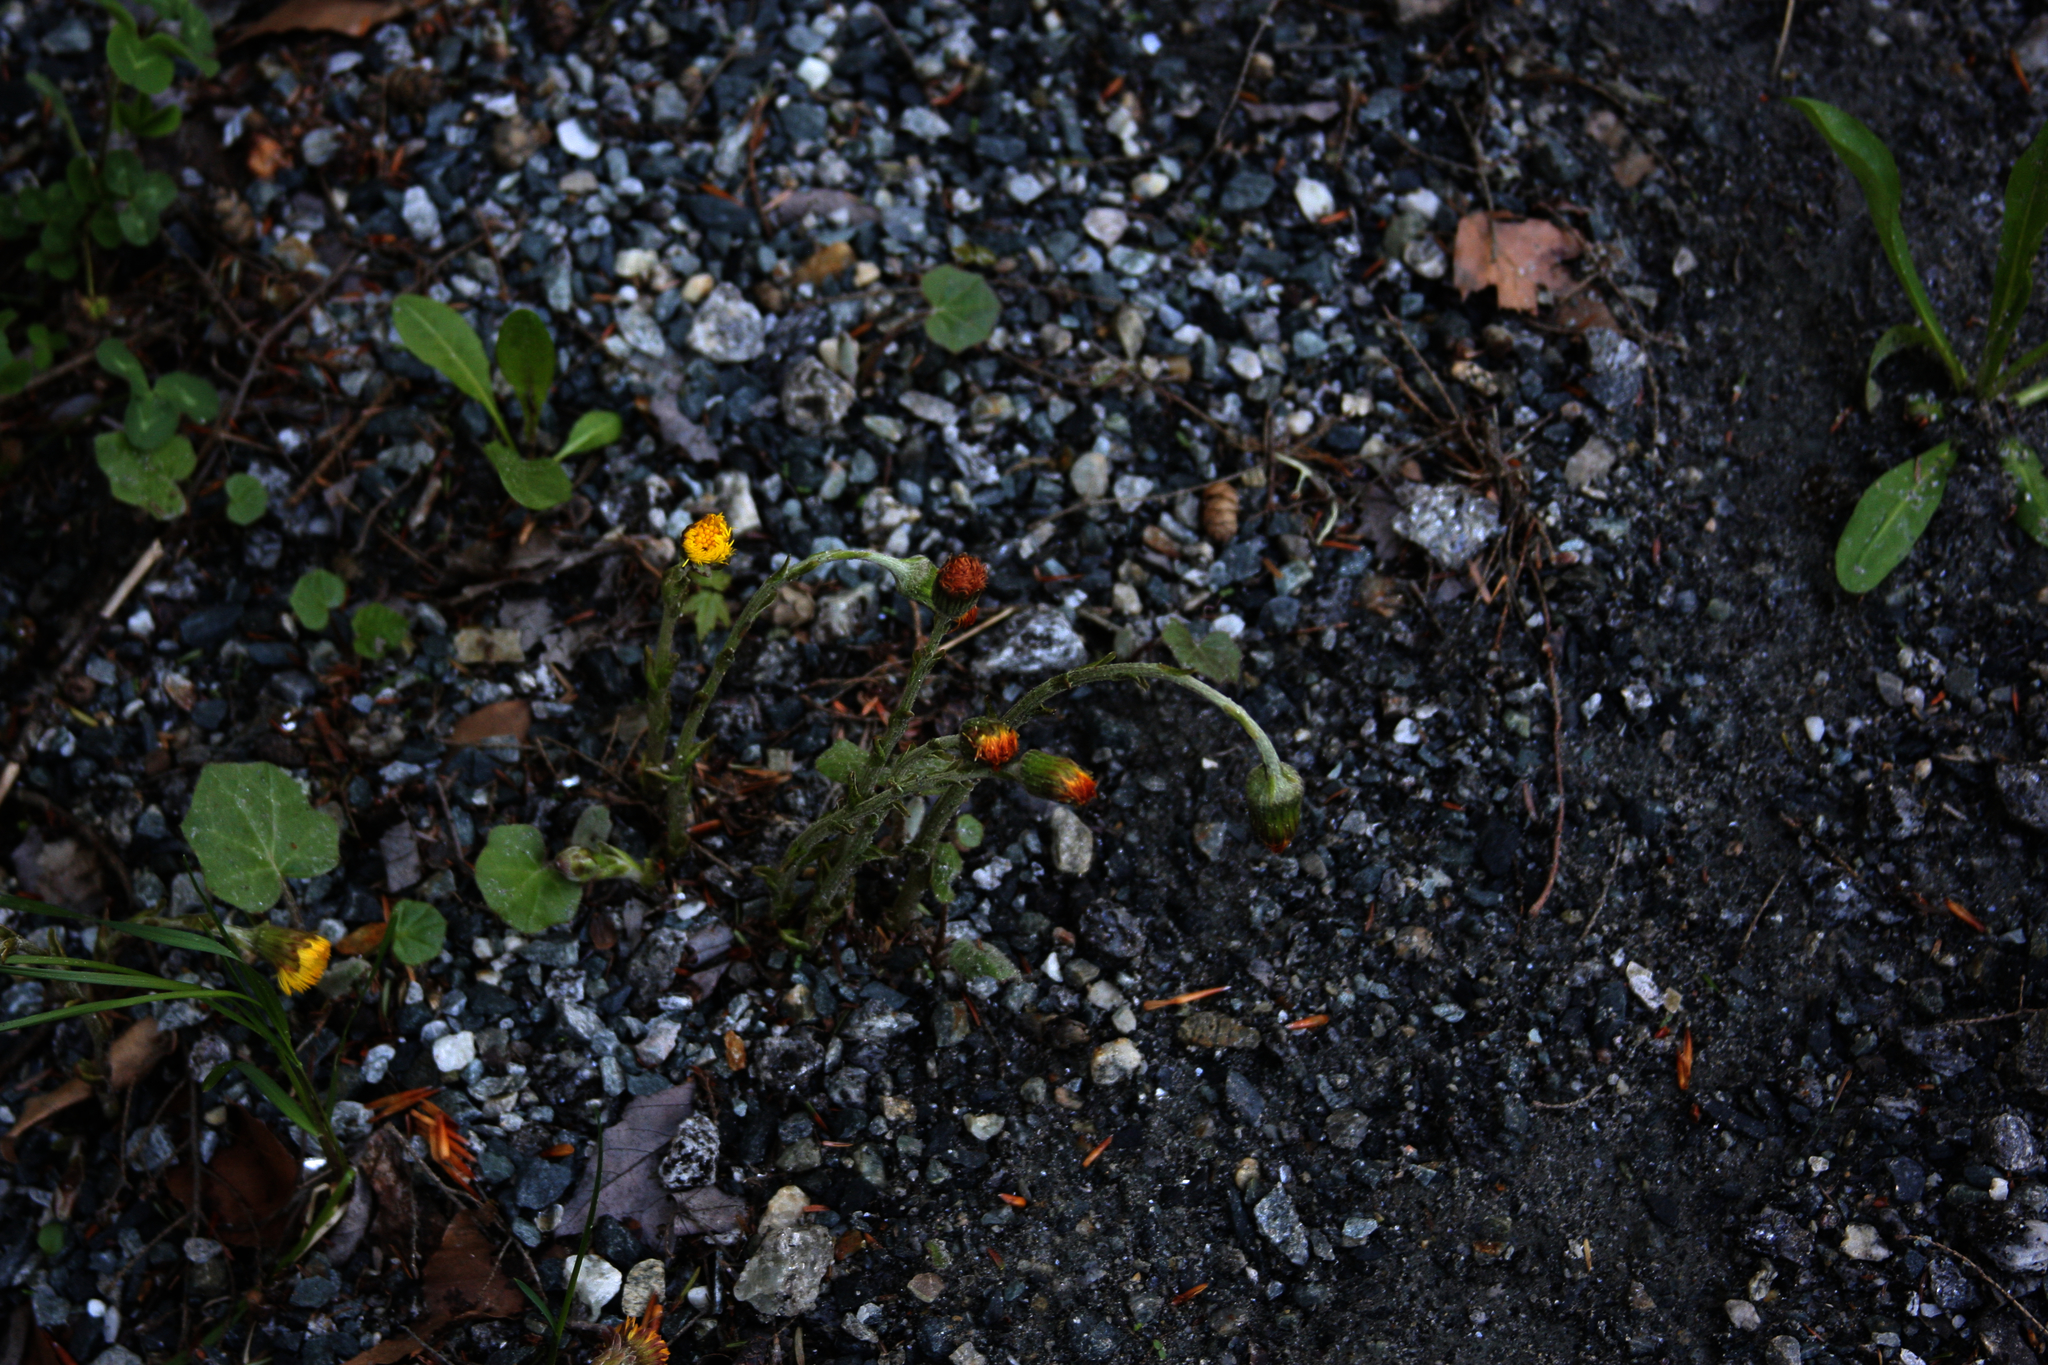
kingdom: Plantae
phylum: Tracheophyta
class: Magnoliopsida
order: Asterales
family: Asteraceae
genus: Tussilago
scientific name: Tussilago farfara
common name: Coltsfoot
